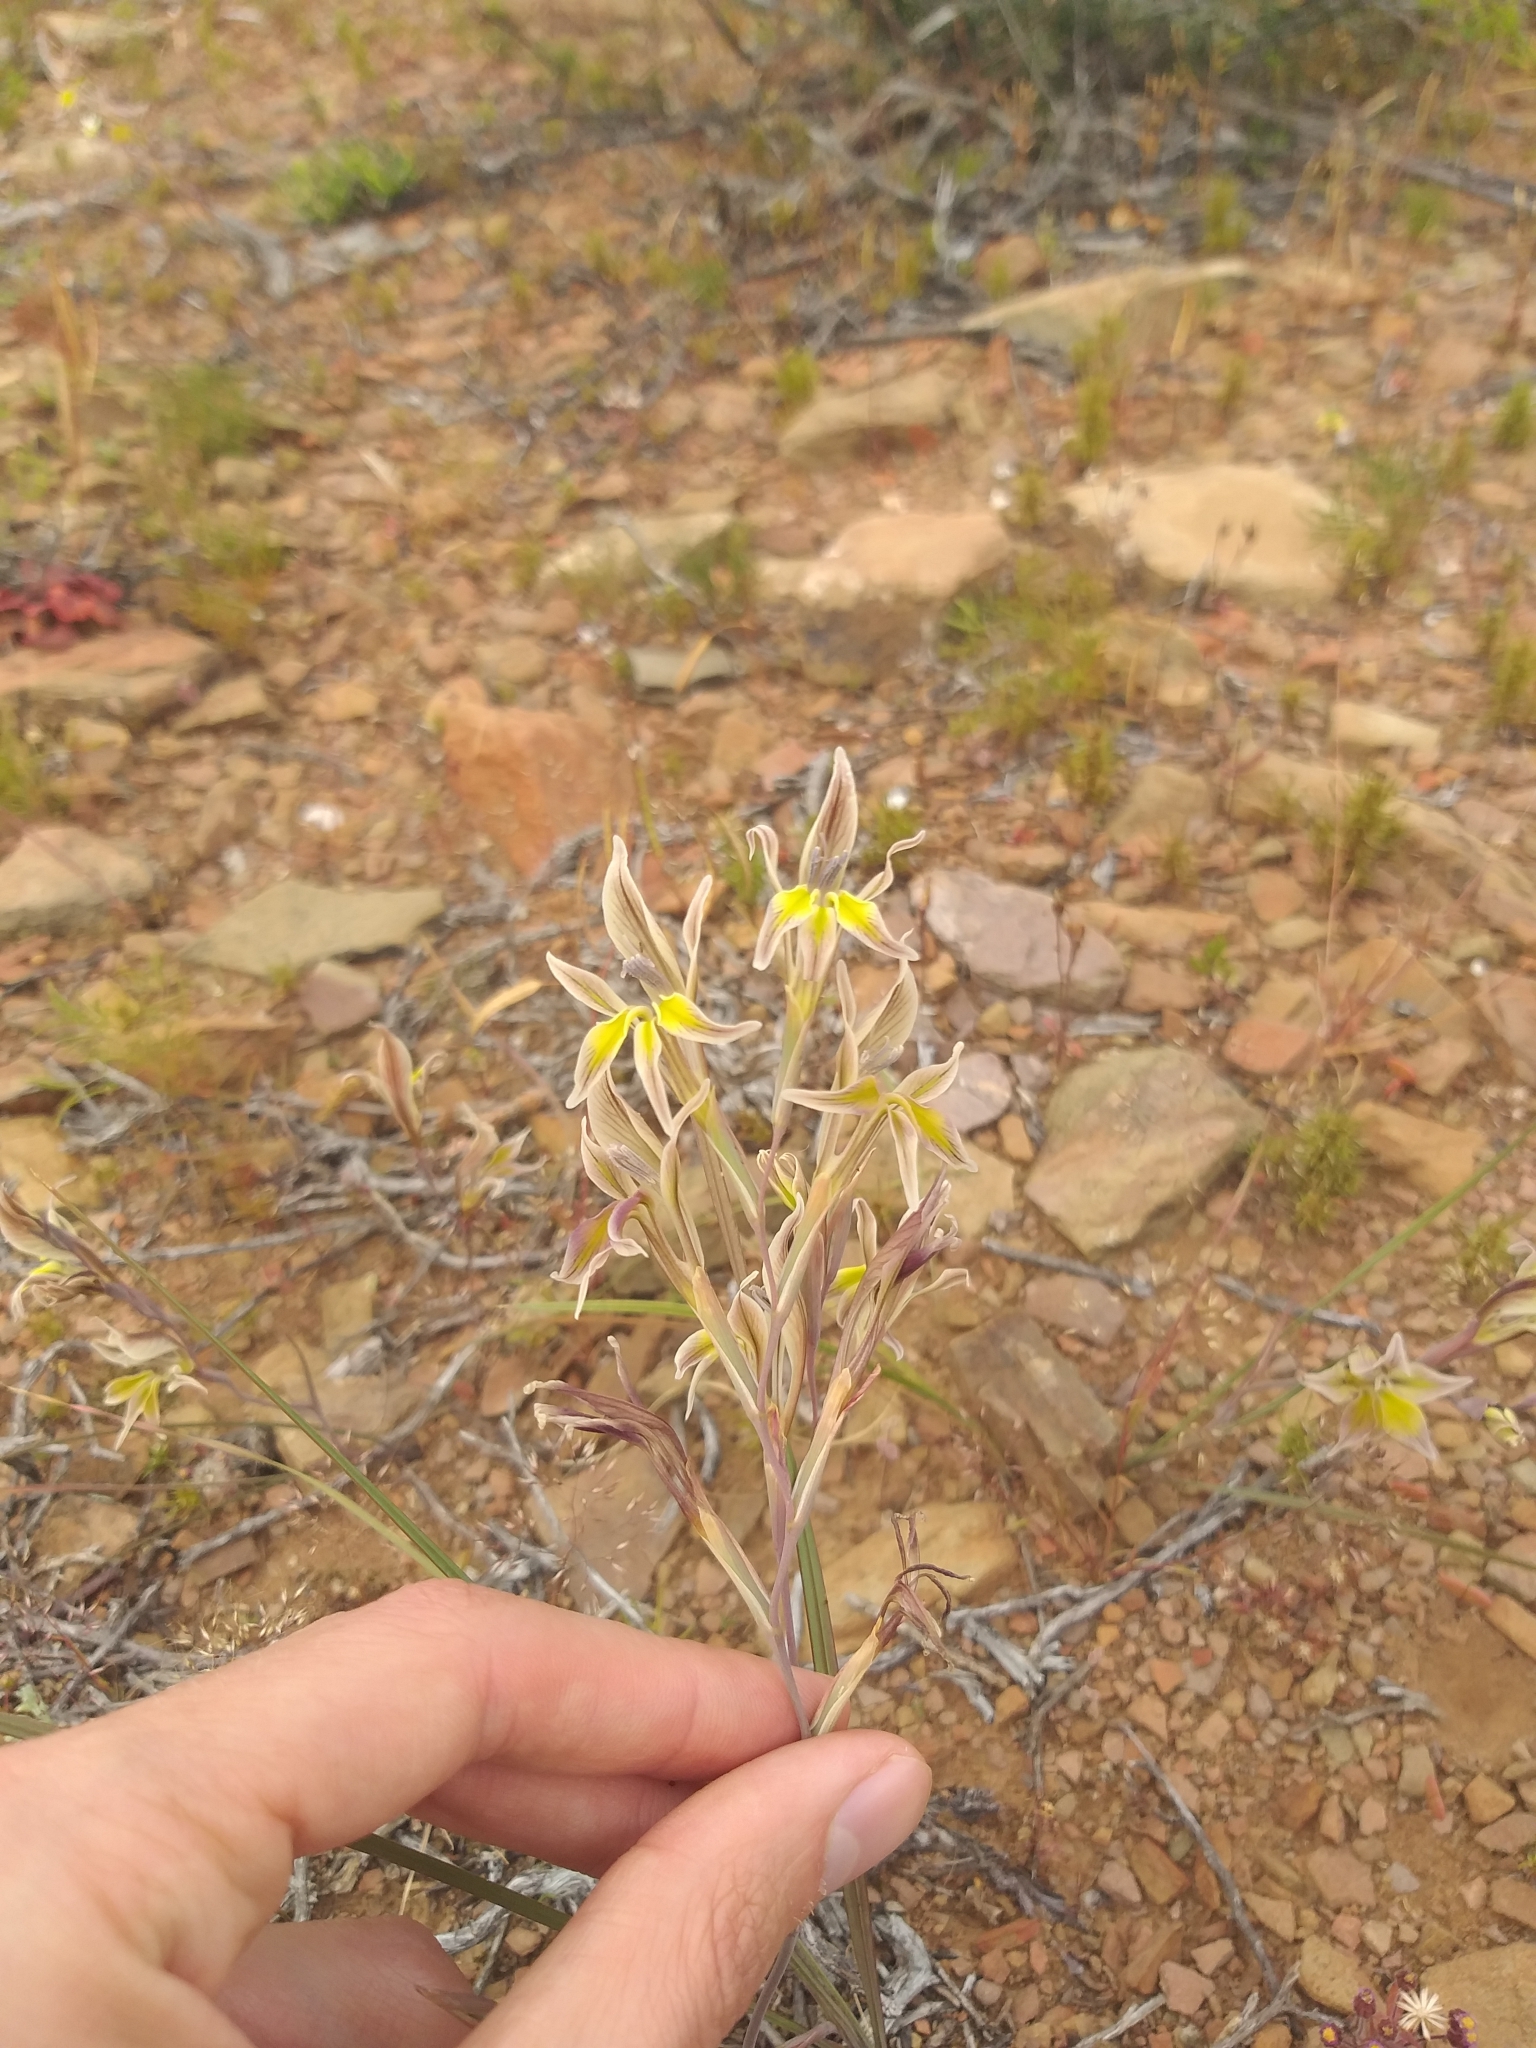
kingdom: Plantae
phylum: Tracheophyta
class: Liliopsida
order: Asparagales
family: Iridaceae
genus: Gladiolus
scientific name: Gladiolus permeabilis
